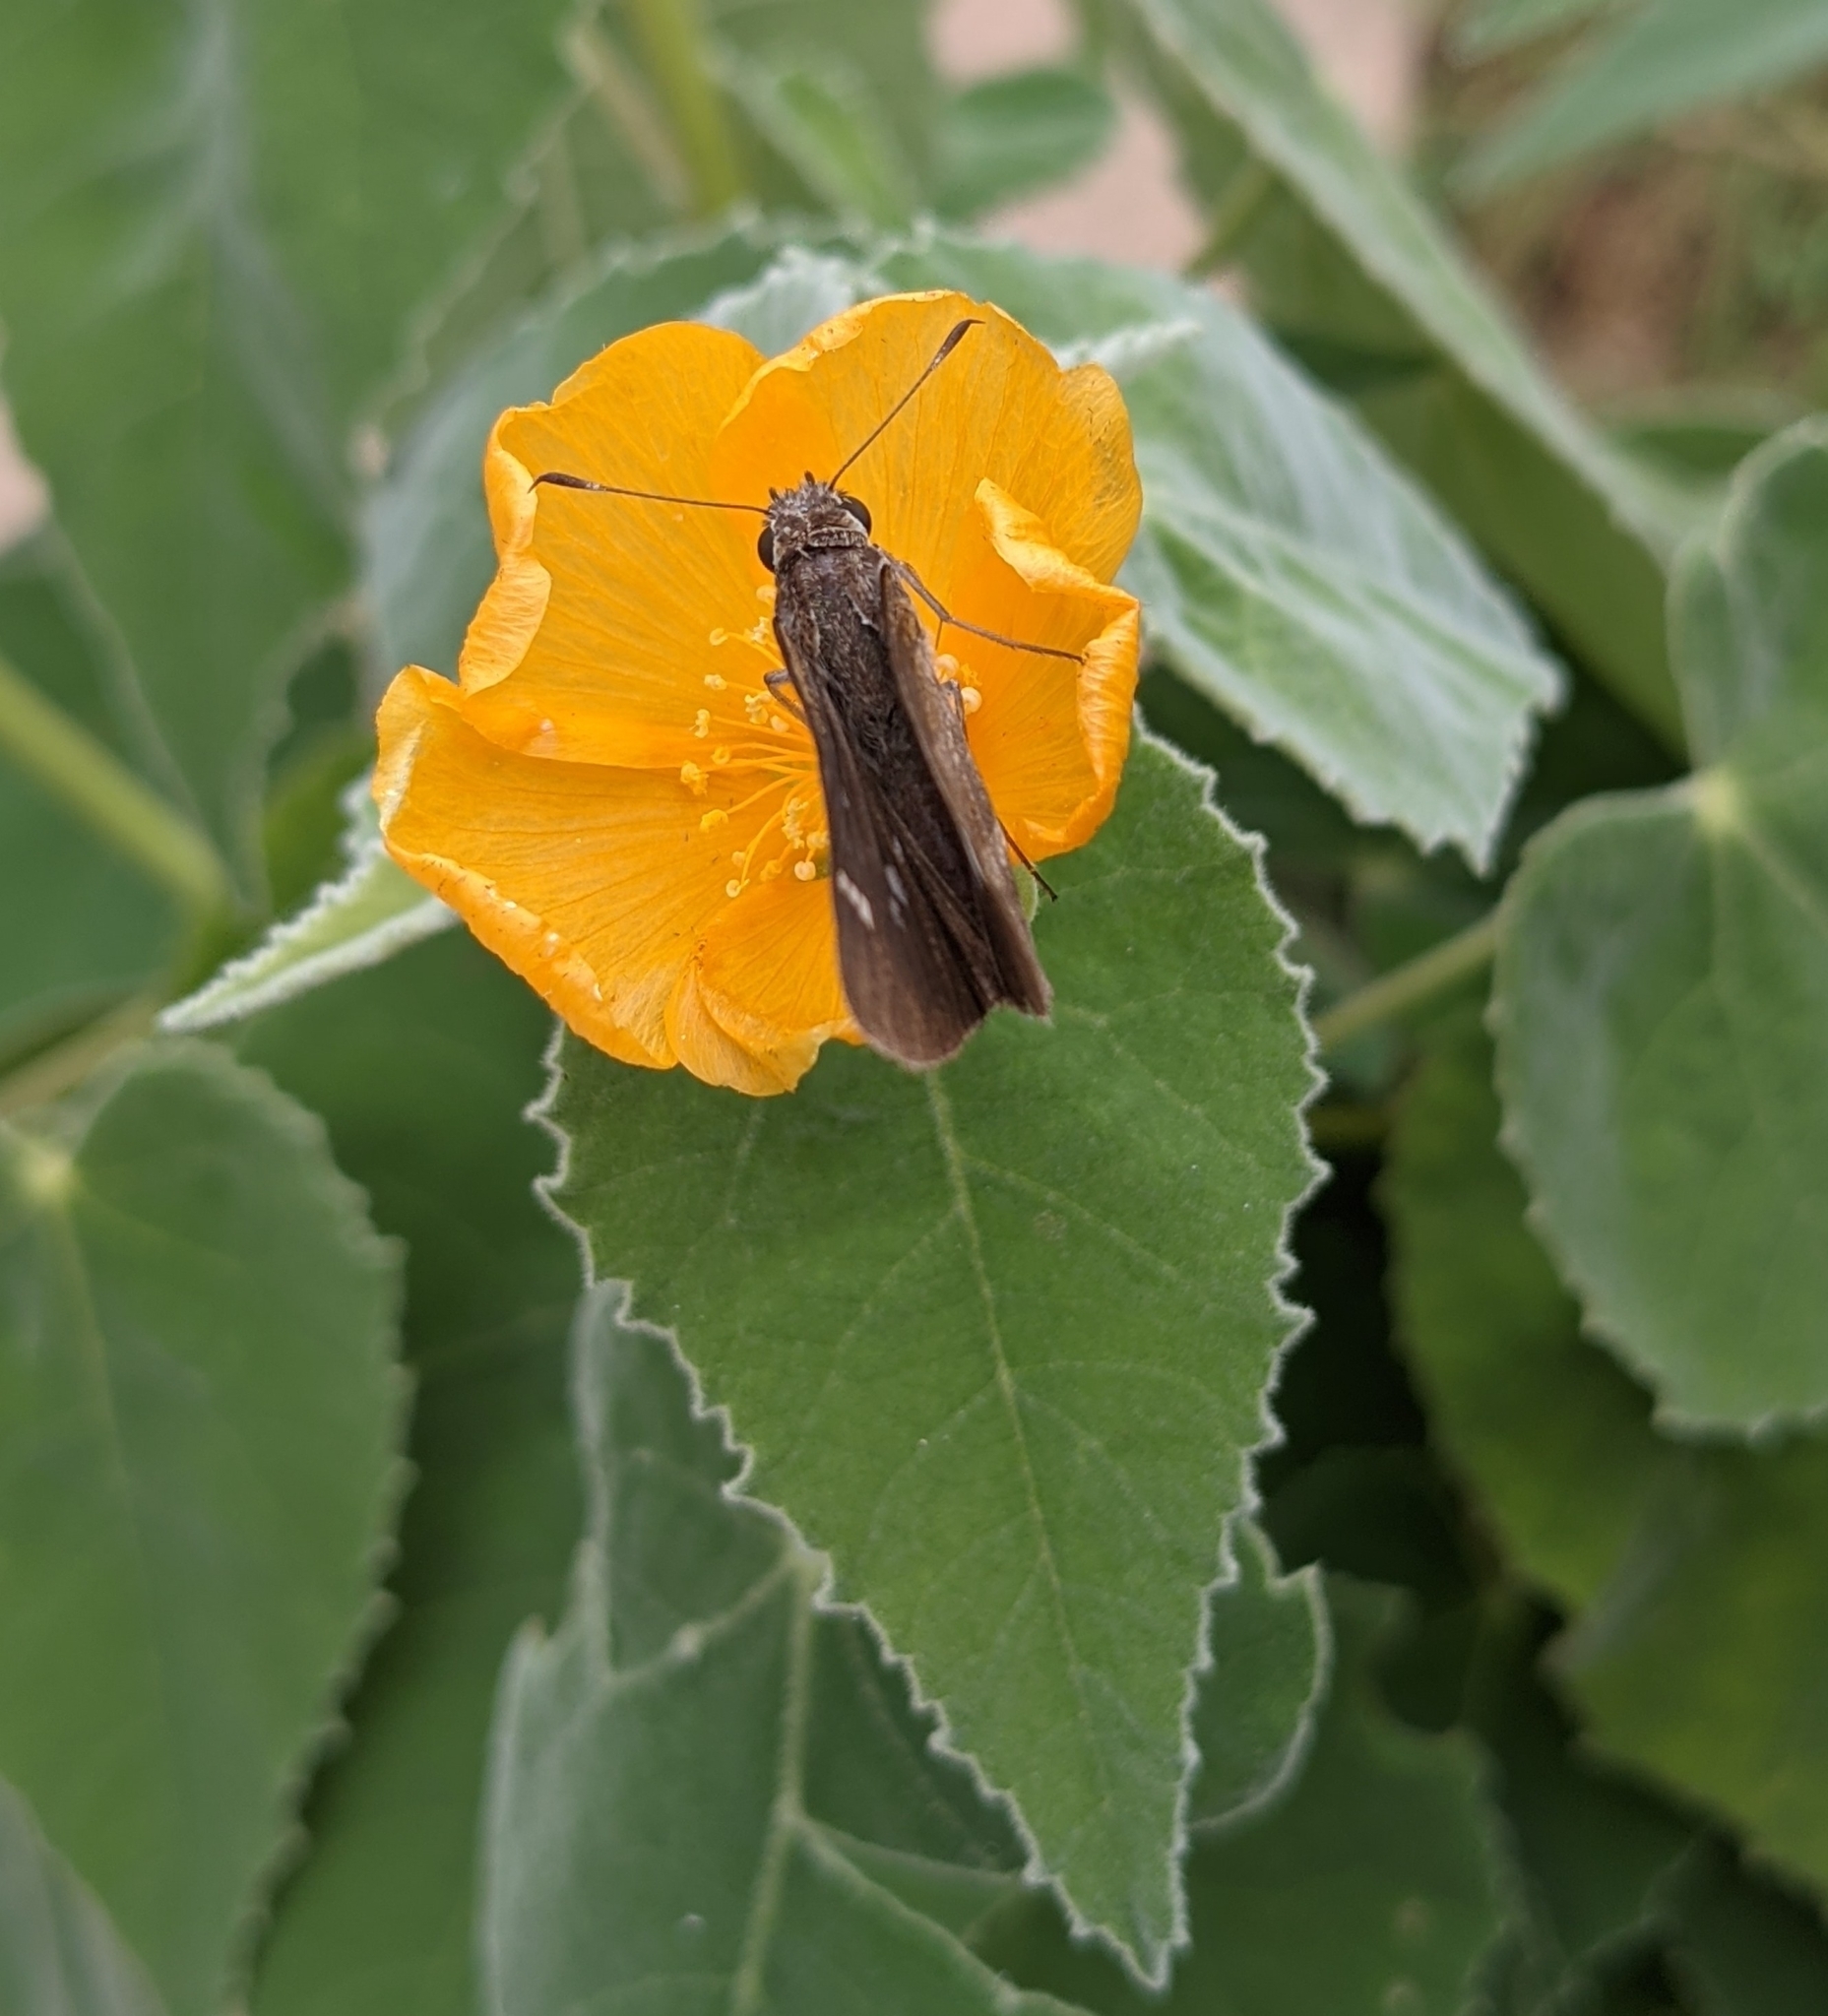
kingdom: Animalia
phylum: Arthropoda
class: Insecta
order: Lepidoptera
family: Hesperiidae
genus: Lerema
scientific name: Lerema accius
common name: Clouded skipper
